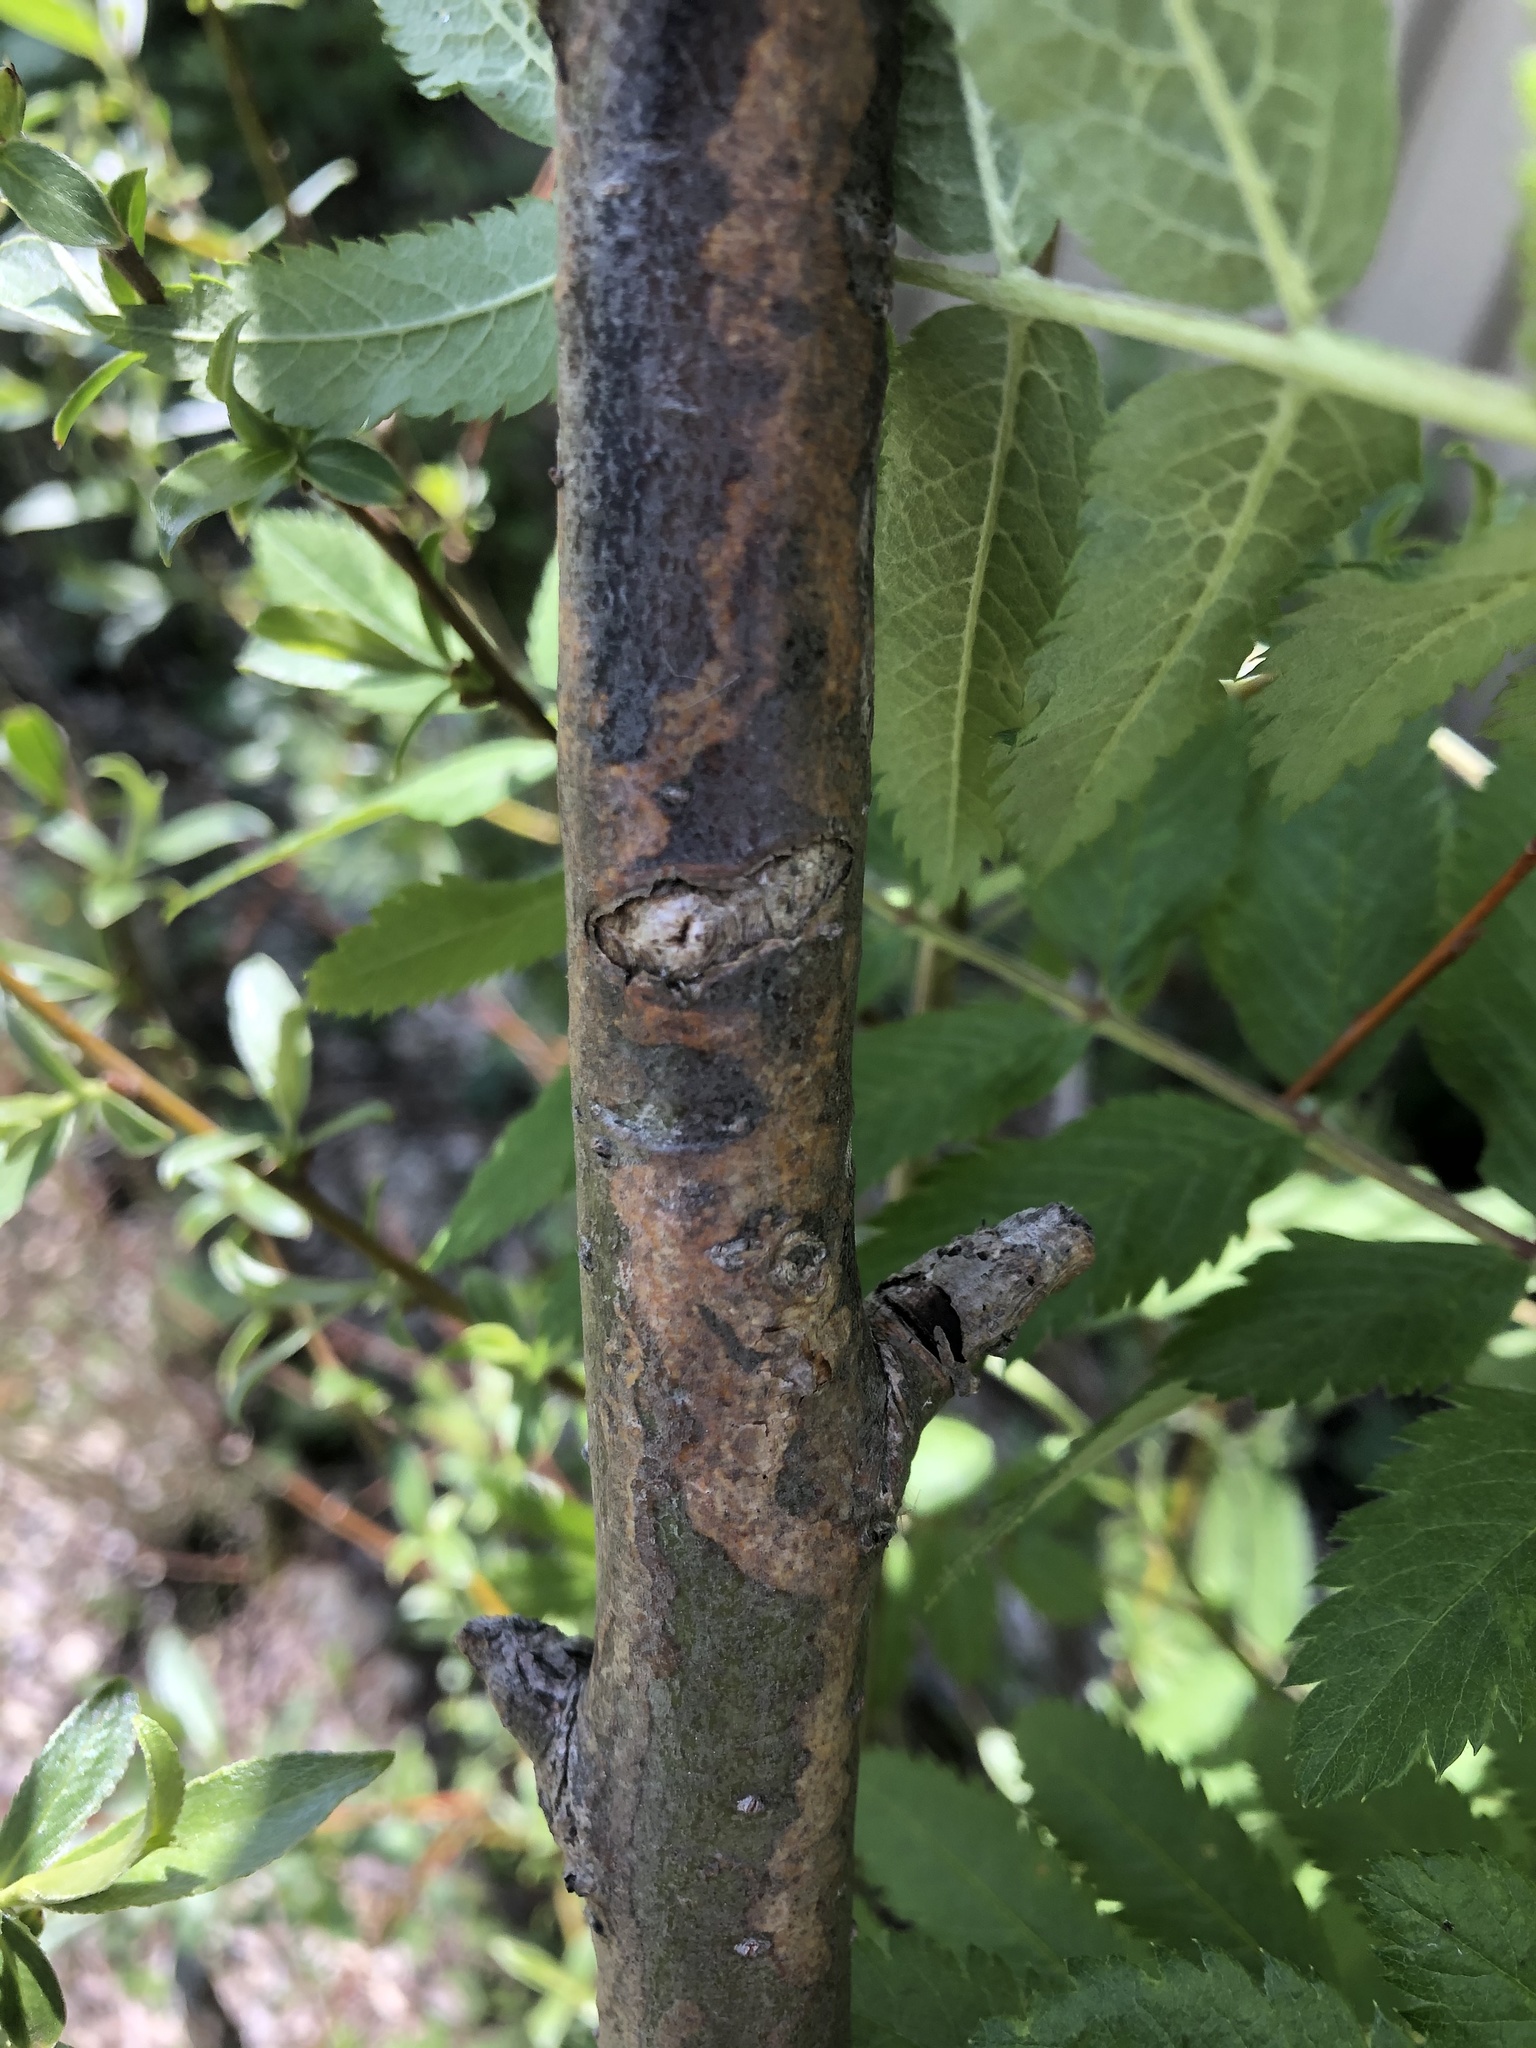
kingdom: Animalia
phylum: Arthropoda
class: Insecta
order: Lepidoptera
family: Gracillariidae
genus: Marmara
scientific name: Marmara salictella
